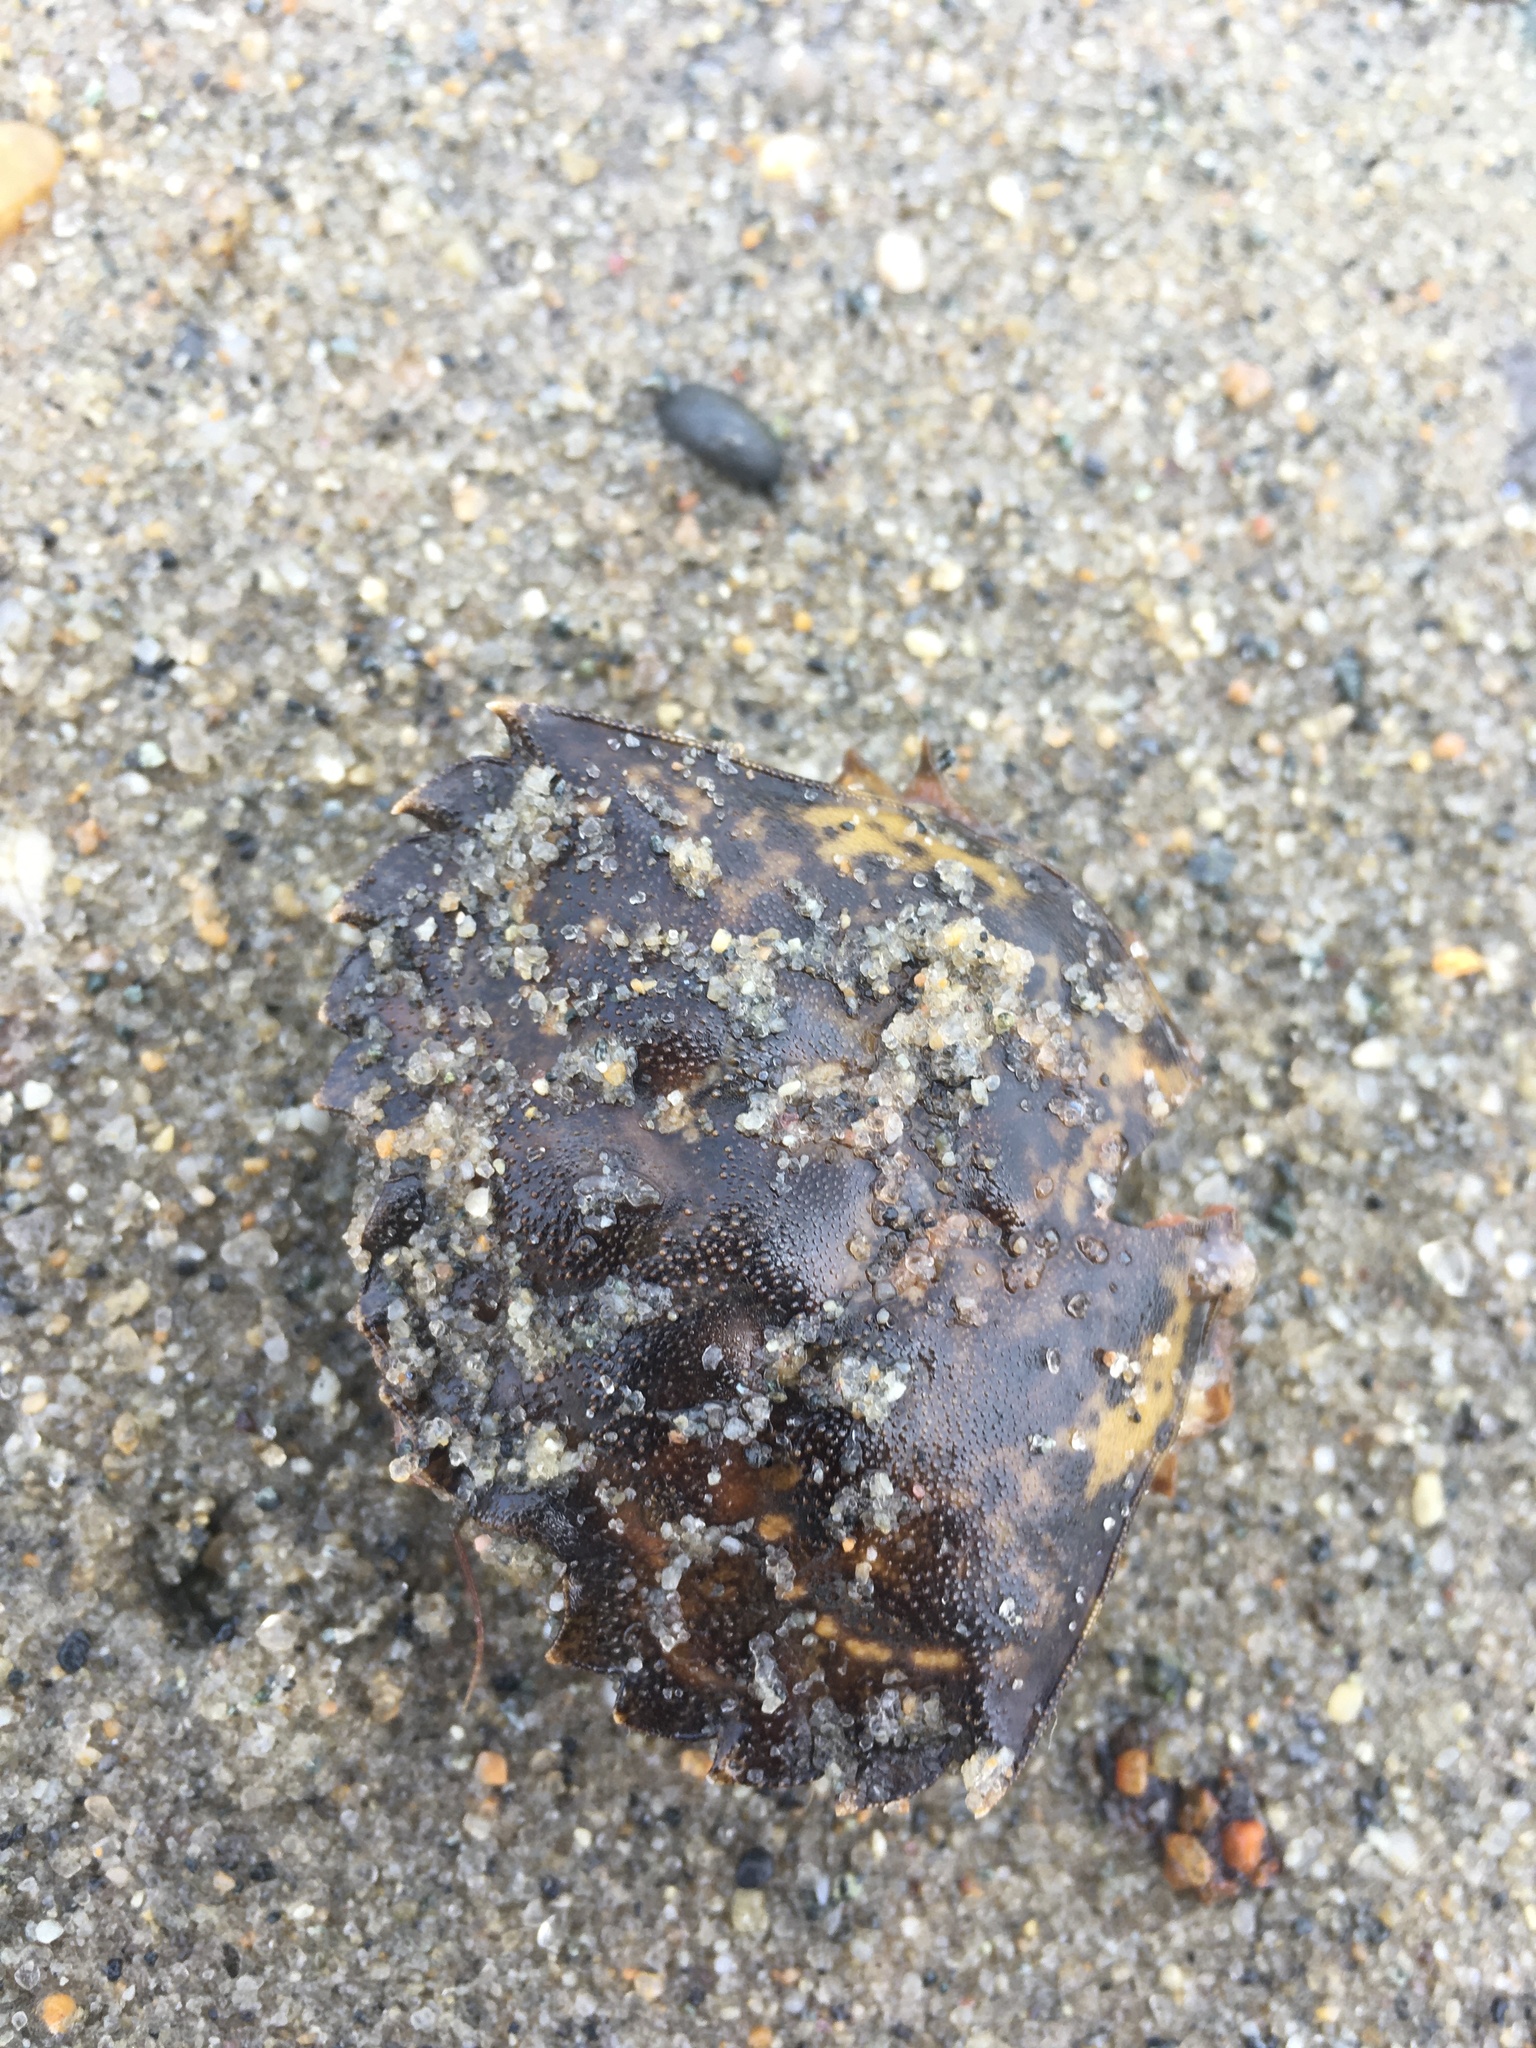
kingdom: Animalia
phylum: Arthropoda
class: Malacostraca
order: Decapoda
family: Carcinidae
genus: Carcinus
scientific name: Carcinus maenas
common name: European green crab
